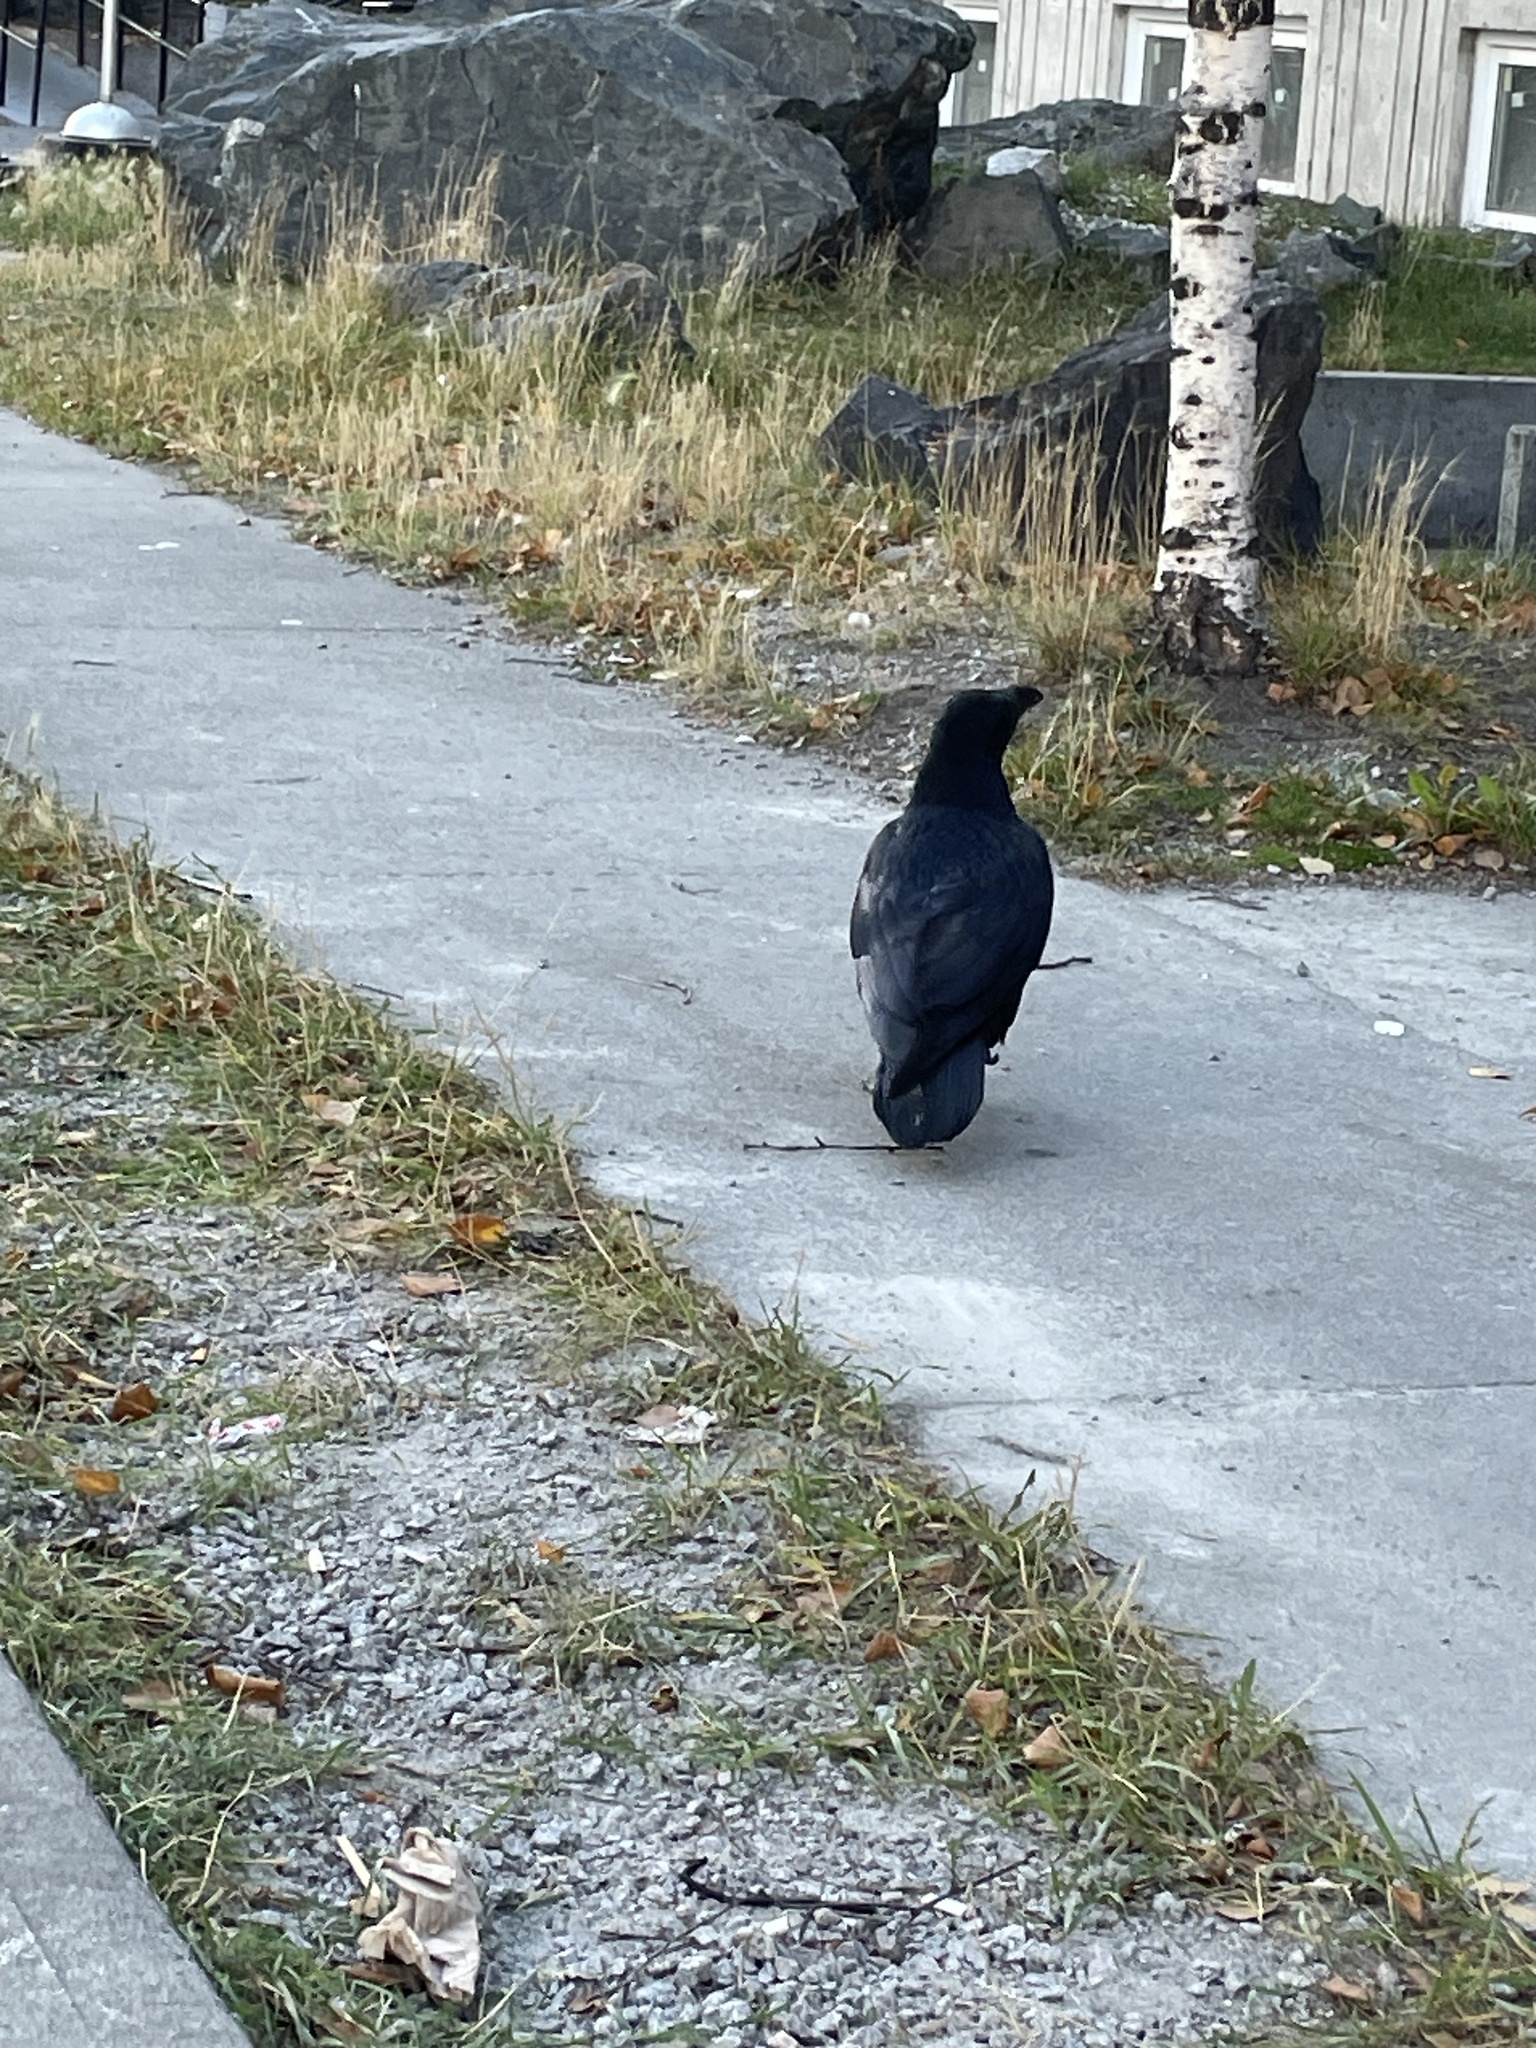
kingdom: Animalia
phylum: Chordata
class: Aves
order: Passeriformes
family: Corvidae
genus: Corvus
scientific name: Corvus corax
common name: Common raven
